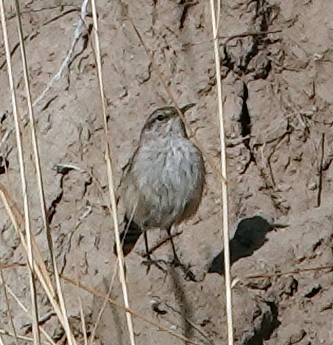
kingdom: Animalia
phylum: Chordata
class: Aves
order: Passeriformes
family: Troglodytidae
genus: Salpinctes
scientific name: Salpinctes obsoletus
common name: Rock wren
